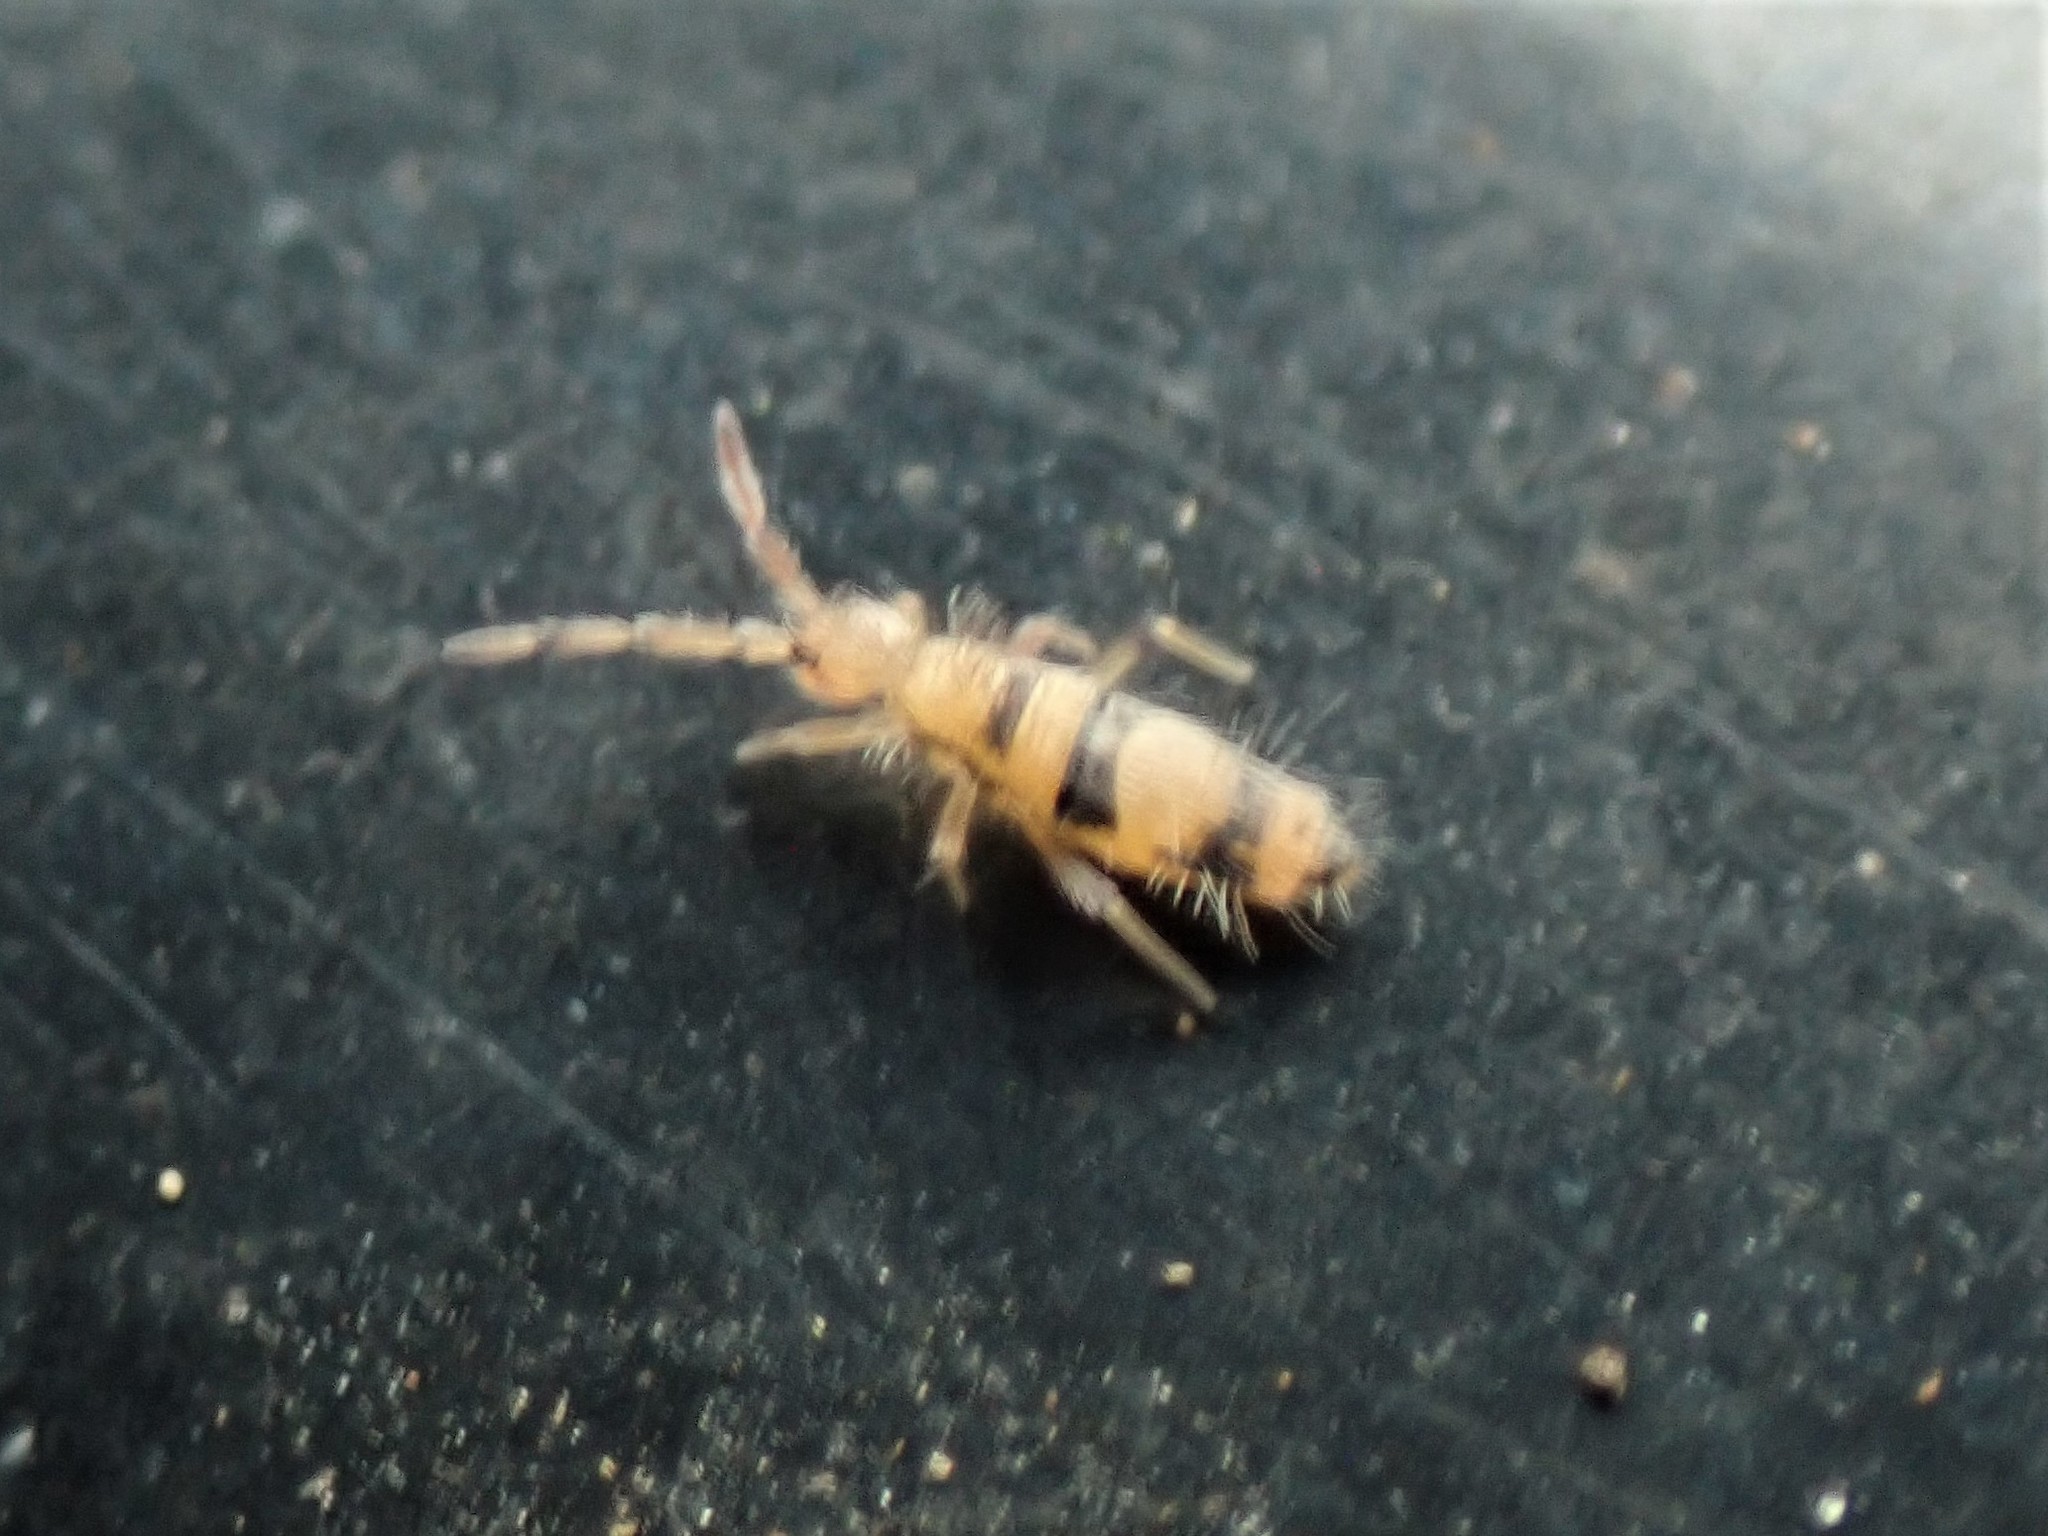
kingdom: Animalia
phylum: Arthropoda
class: Collembola
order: Entomobryomorpha
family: Entomobryidae
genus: Entomobrya
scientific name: Entomobrya triangularis
